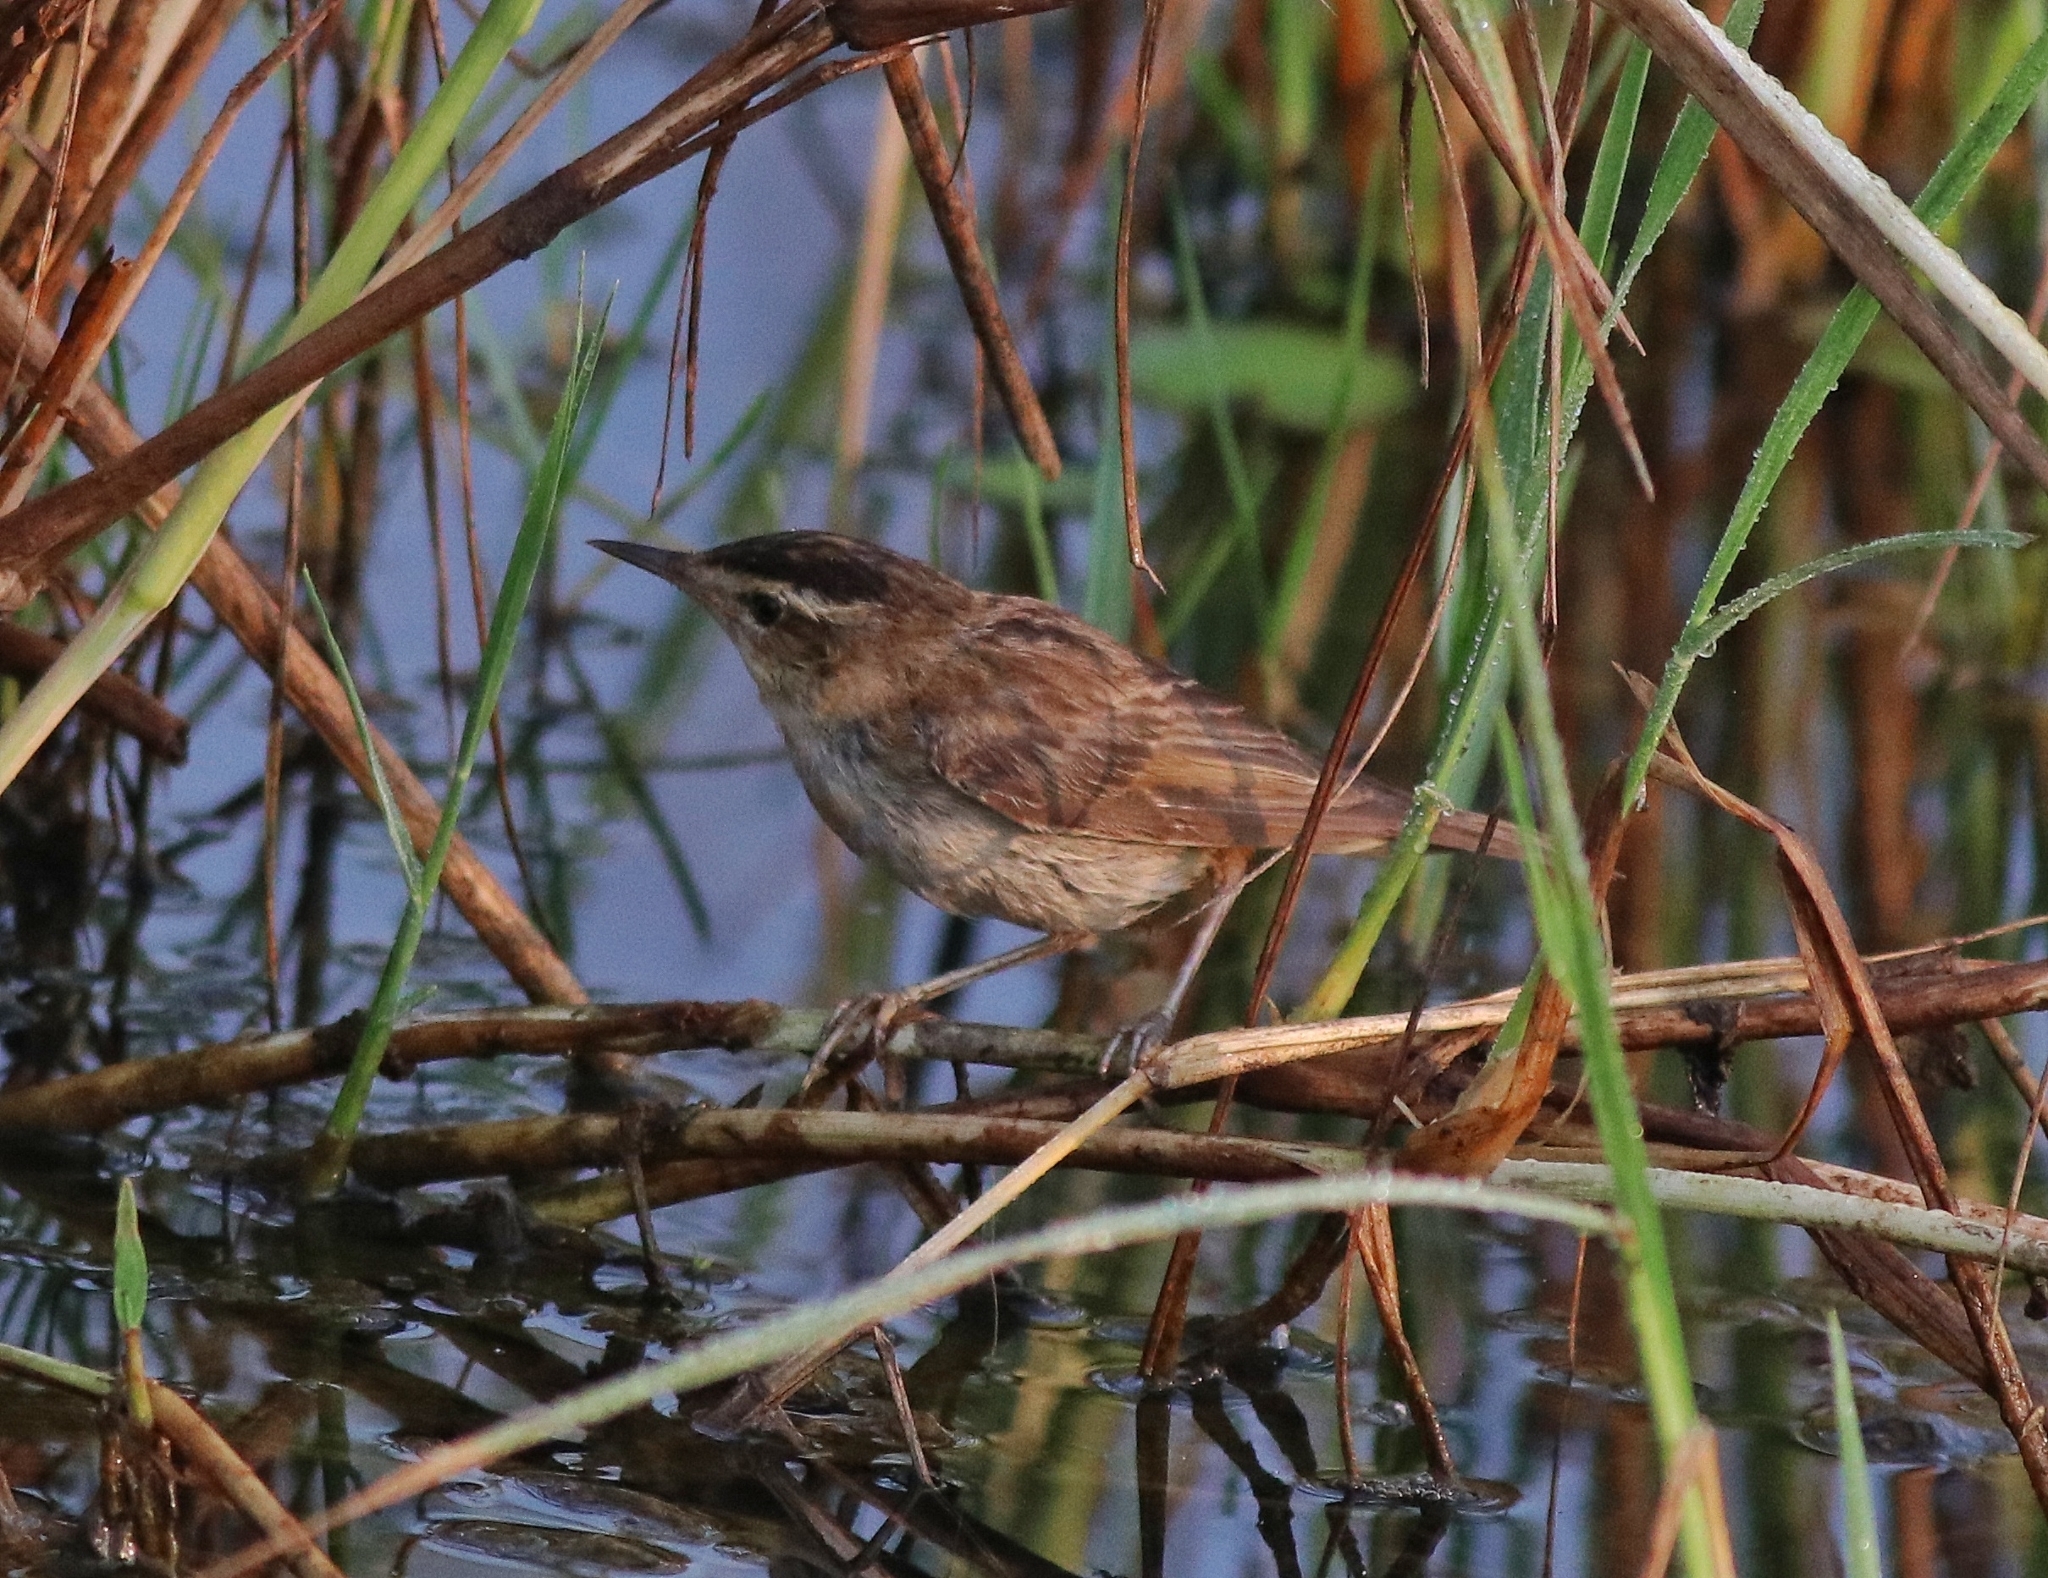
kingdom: Animalia
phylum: Chordata
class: Aves
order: Passeriformes
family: Acrocephalidae
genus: Acrocephalus
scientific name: Acrocephalus schoenobaenus
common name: Sedge warbler
